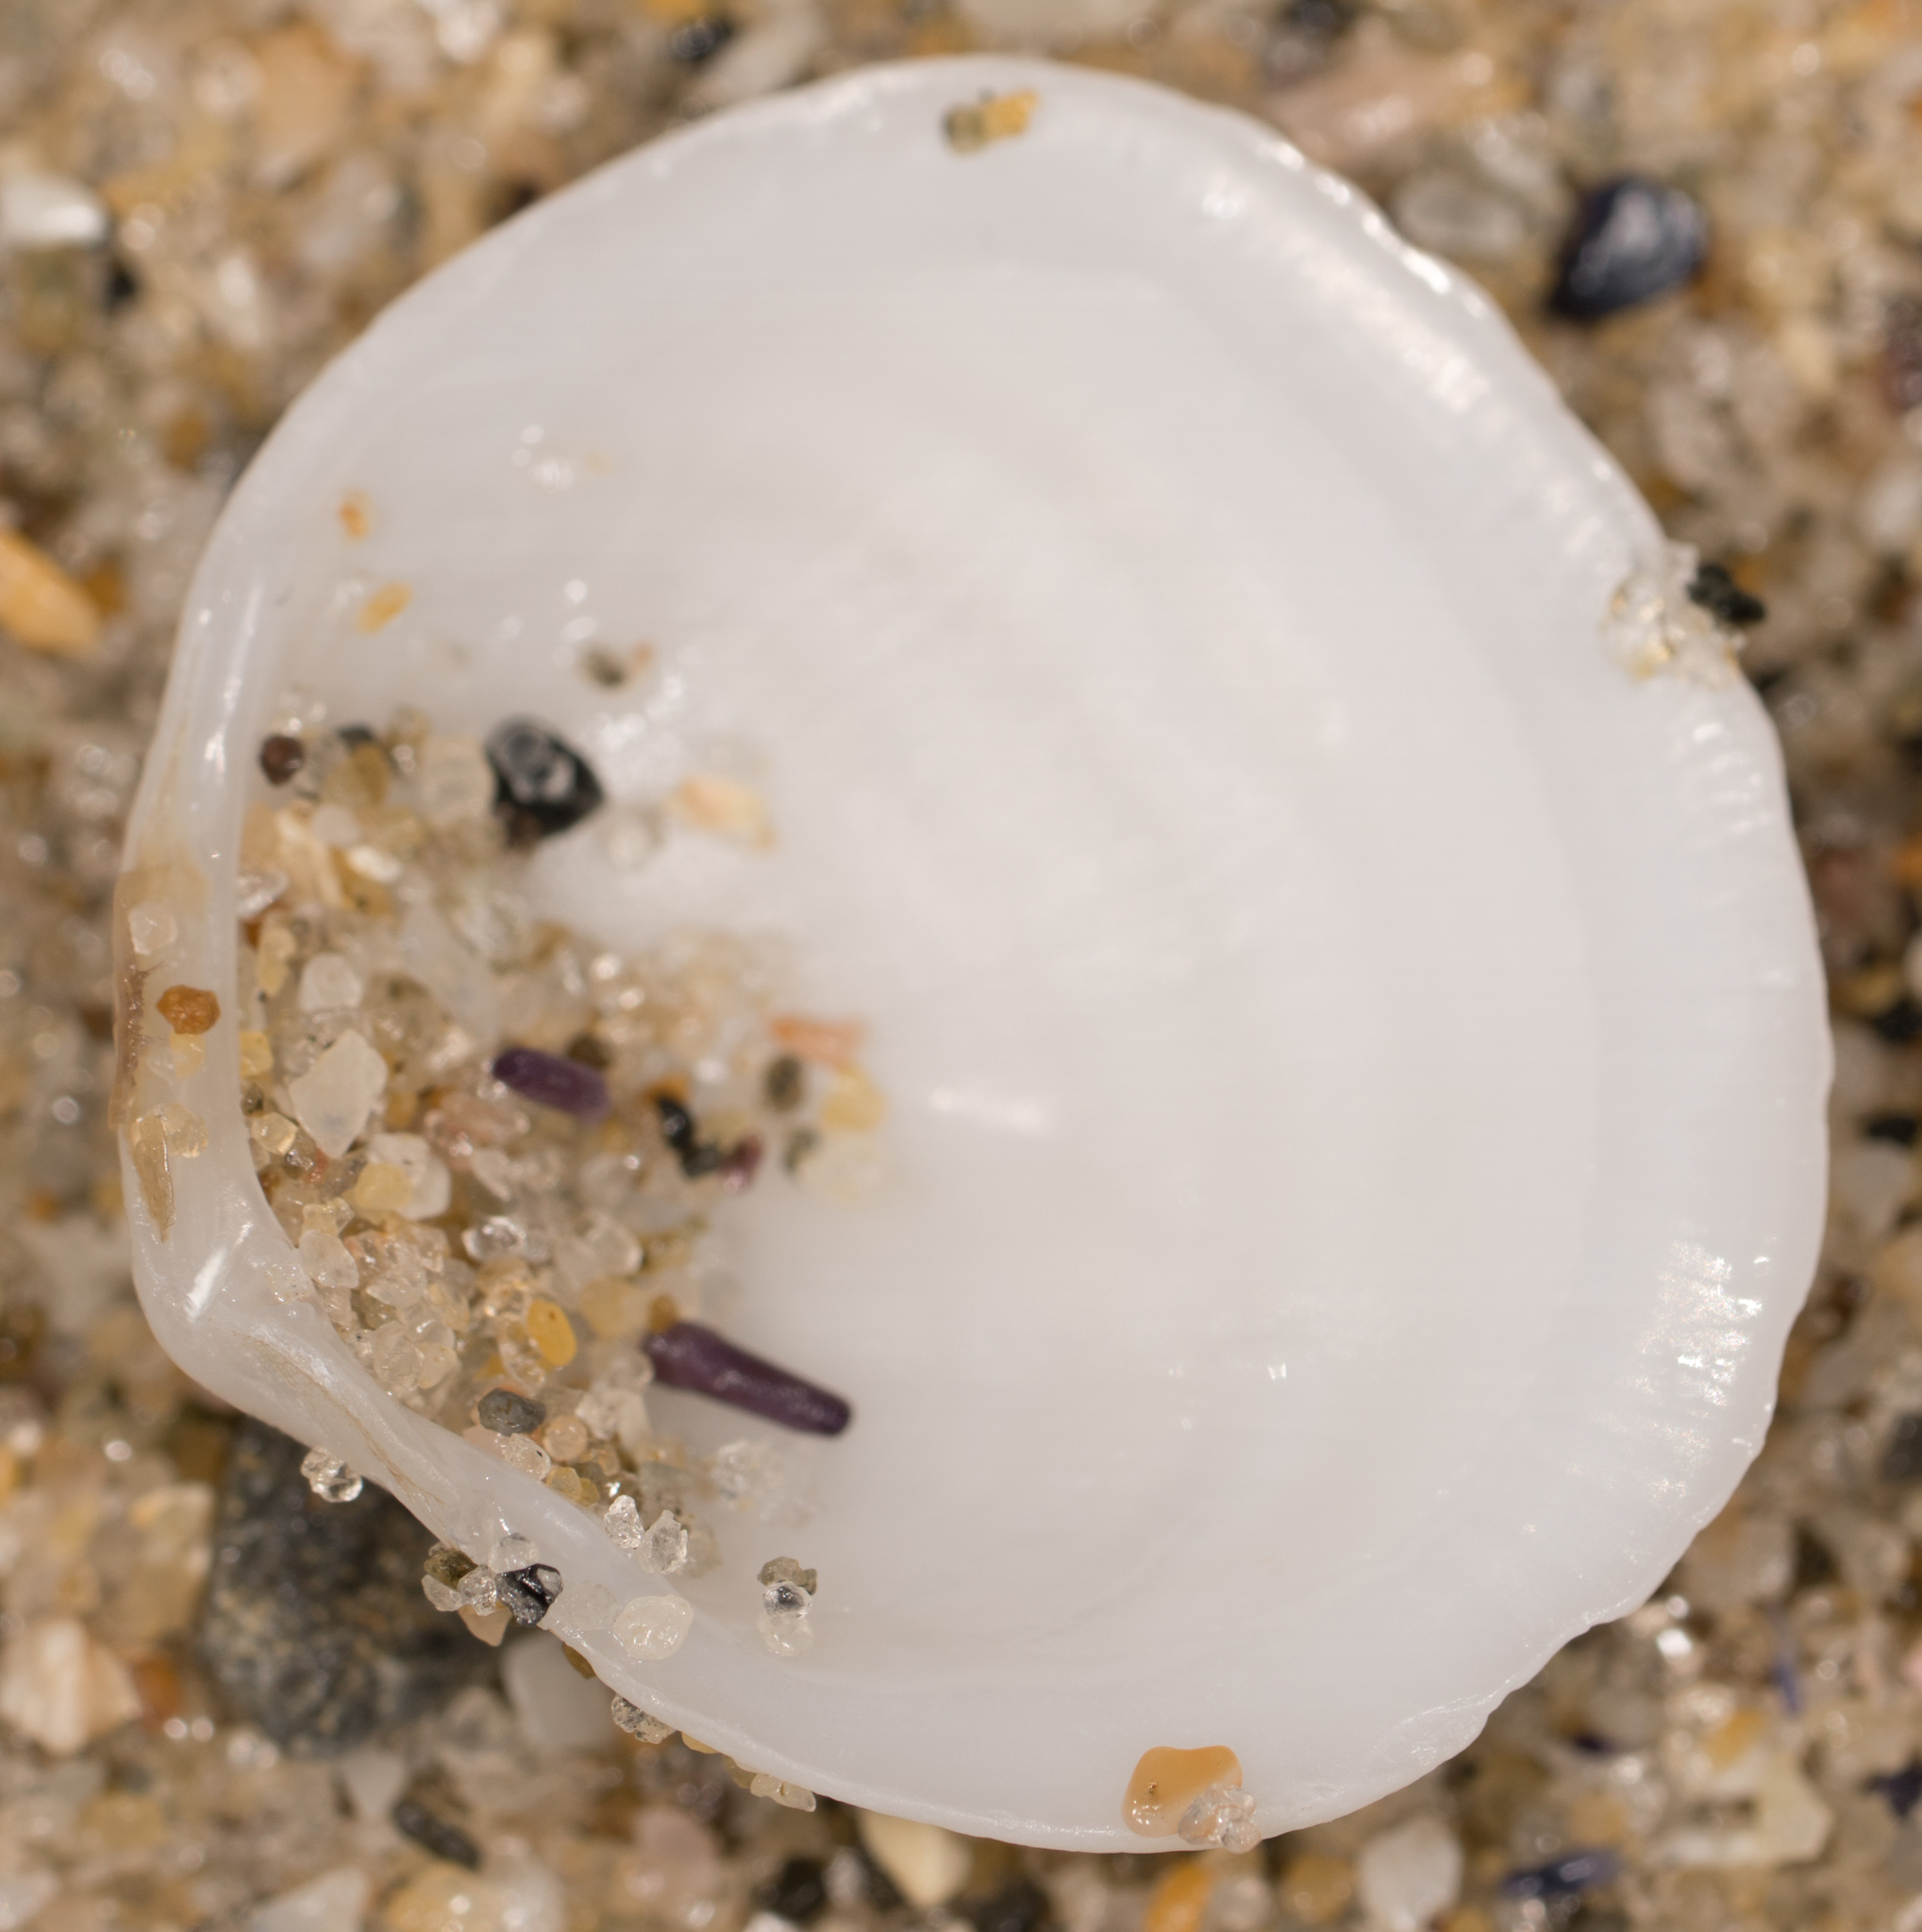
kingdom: Animalia
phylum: Mollusca
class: Bivalvia
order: Lucinida
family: Lucinidae
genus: Epilucina
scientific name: Epilucina californica
